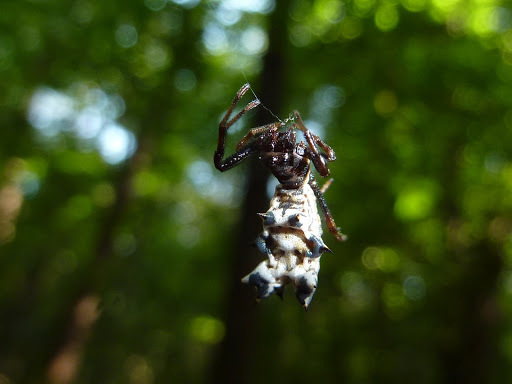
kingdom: Animalia
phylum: Arthropoda
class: Arachnida
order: Araneae
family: Araneidae
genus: Micrathena
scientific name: Micrathena gracilis
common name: Orb weavers
